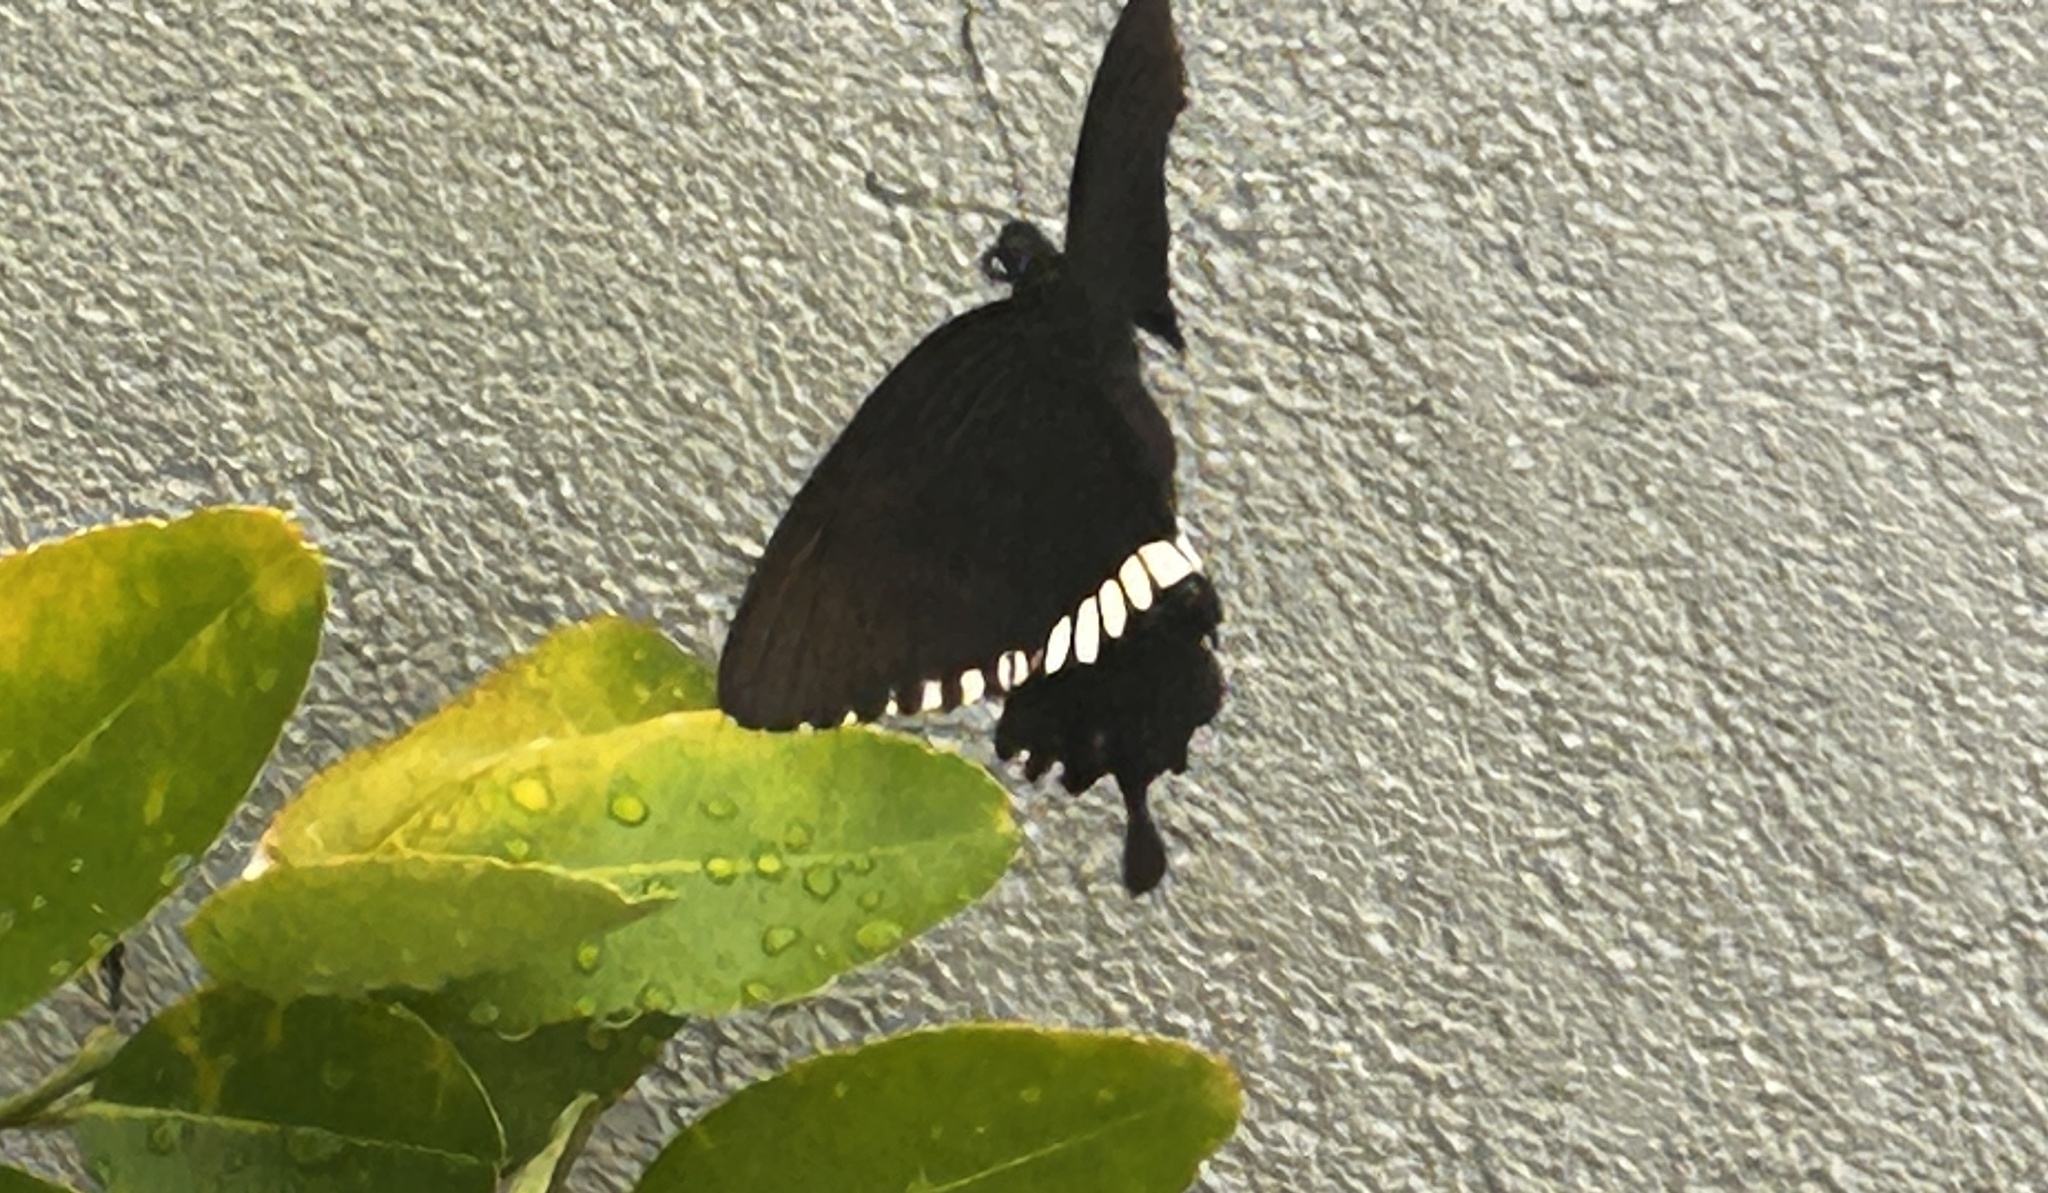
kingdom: Animalia
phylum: Arthropoda
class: Insecta
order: Lepidoptera
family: Papilionidae
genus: Papilio
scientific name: Papilio polytes
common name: Common mormon
